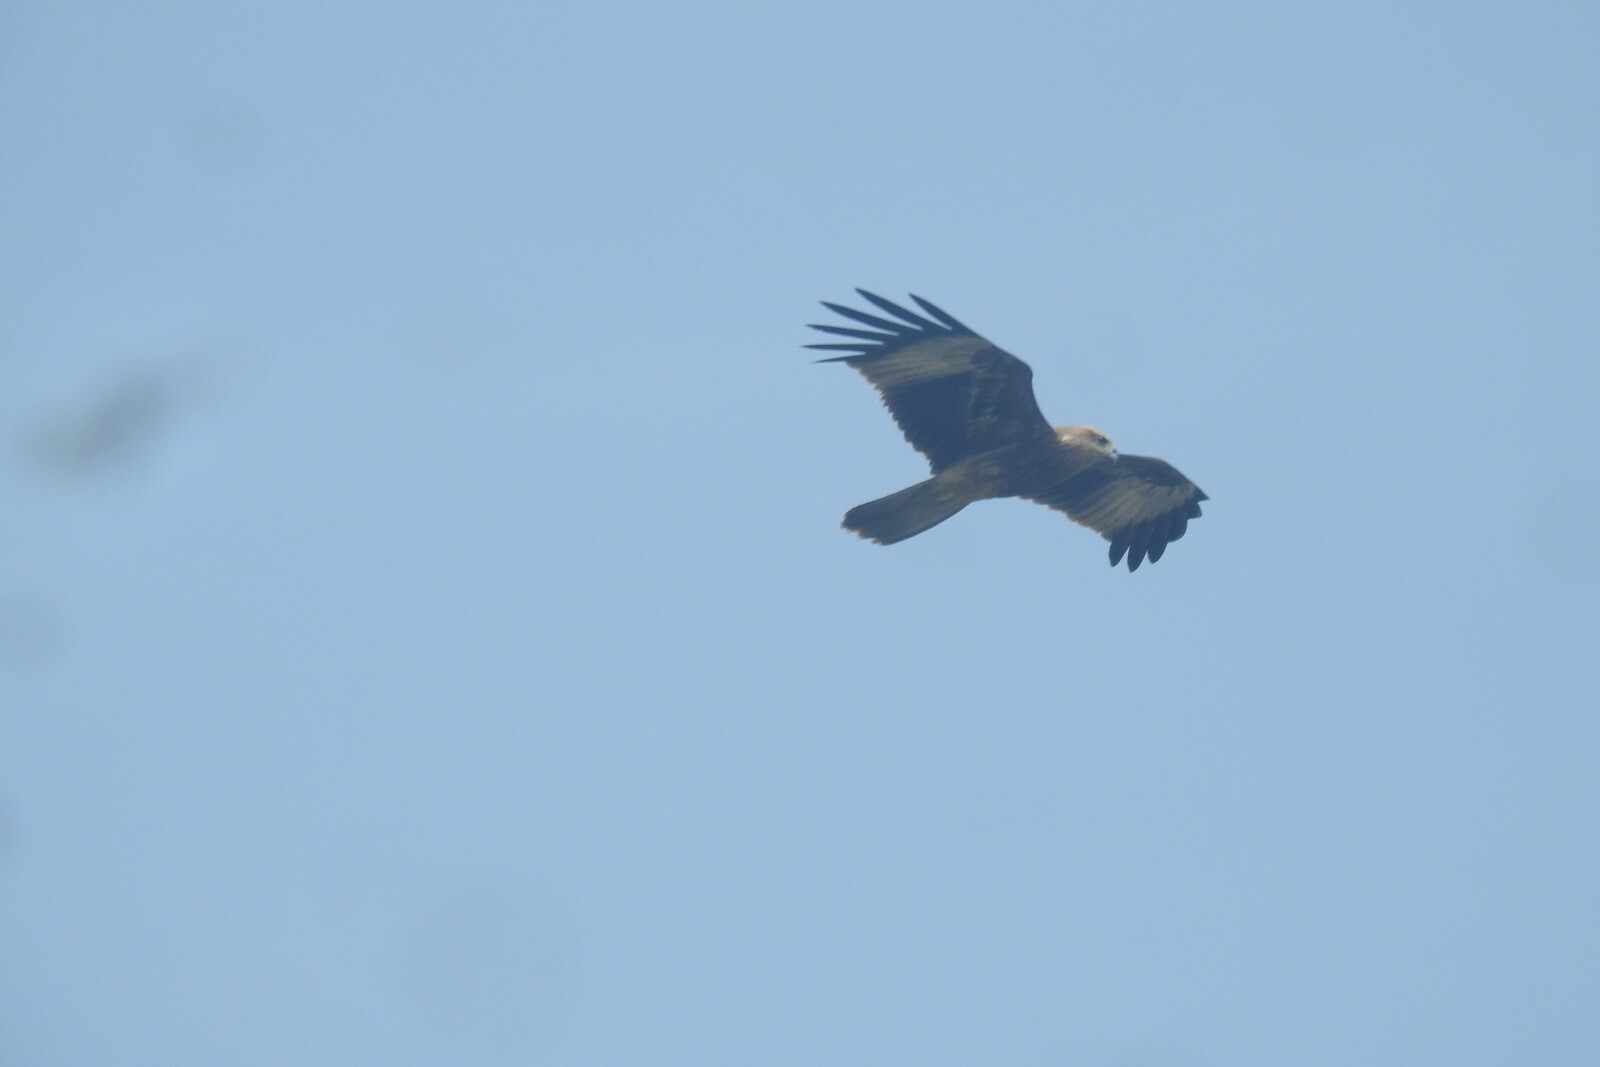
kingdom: Animalia
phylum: Chordata
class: Aves
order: Accipitriformes
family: Accipitridae
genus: Haliastur
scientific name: Haliastur indus
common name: Brahminy kite
